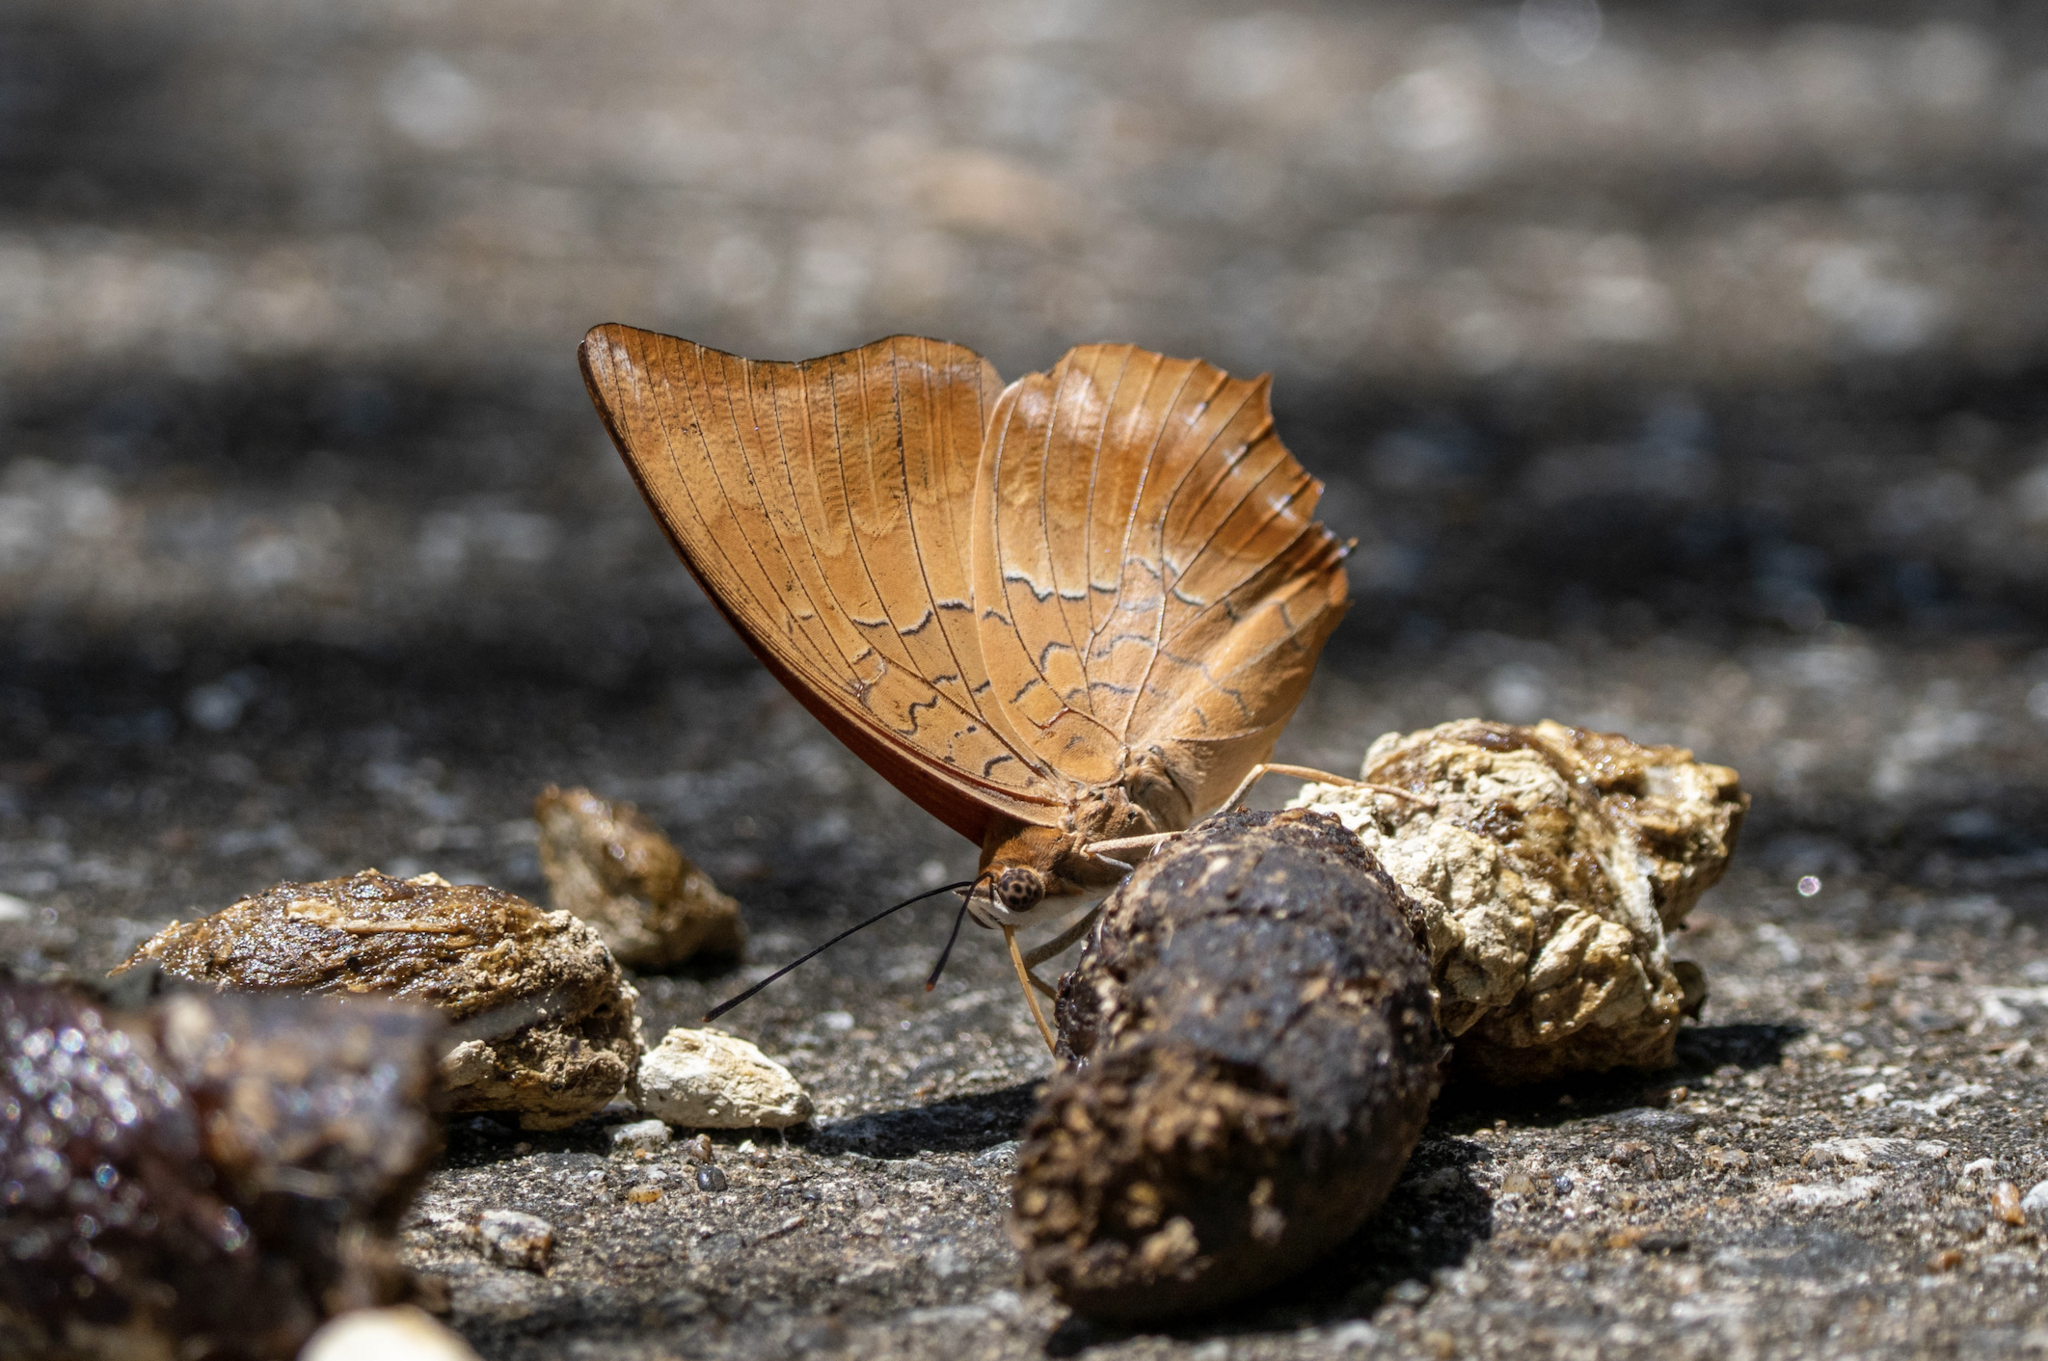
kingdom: Animalia
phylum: Arthropoda
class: Insecta
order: Lepidoptera
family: Nymphalidae
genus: Charaxes
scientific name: Charaxes bernardus
